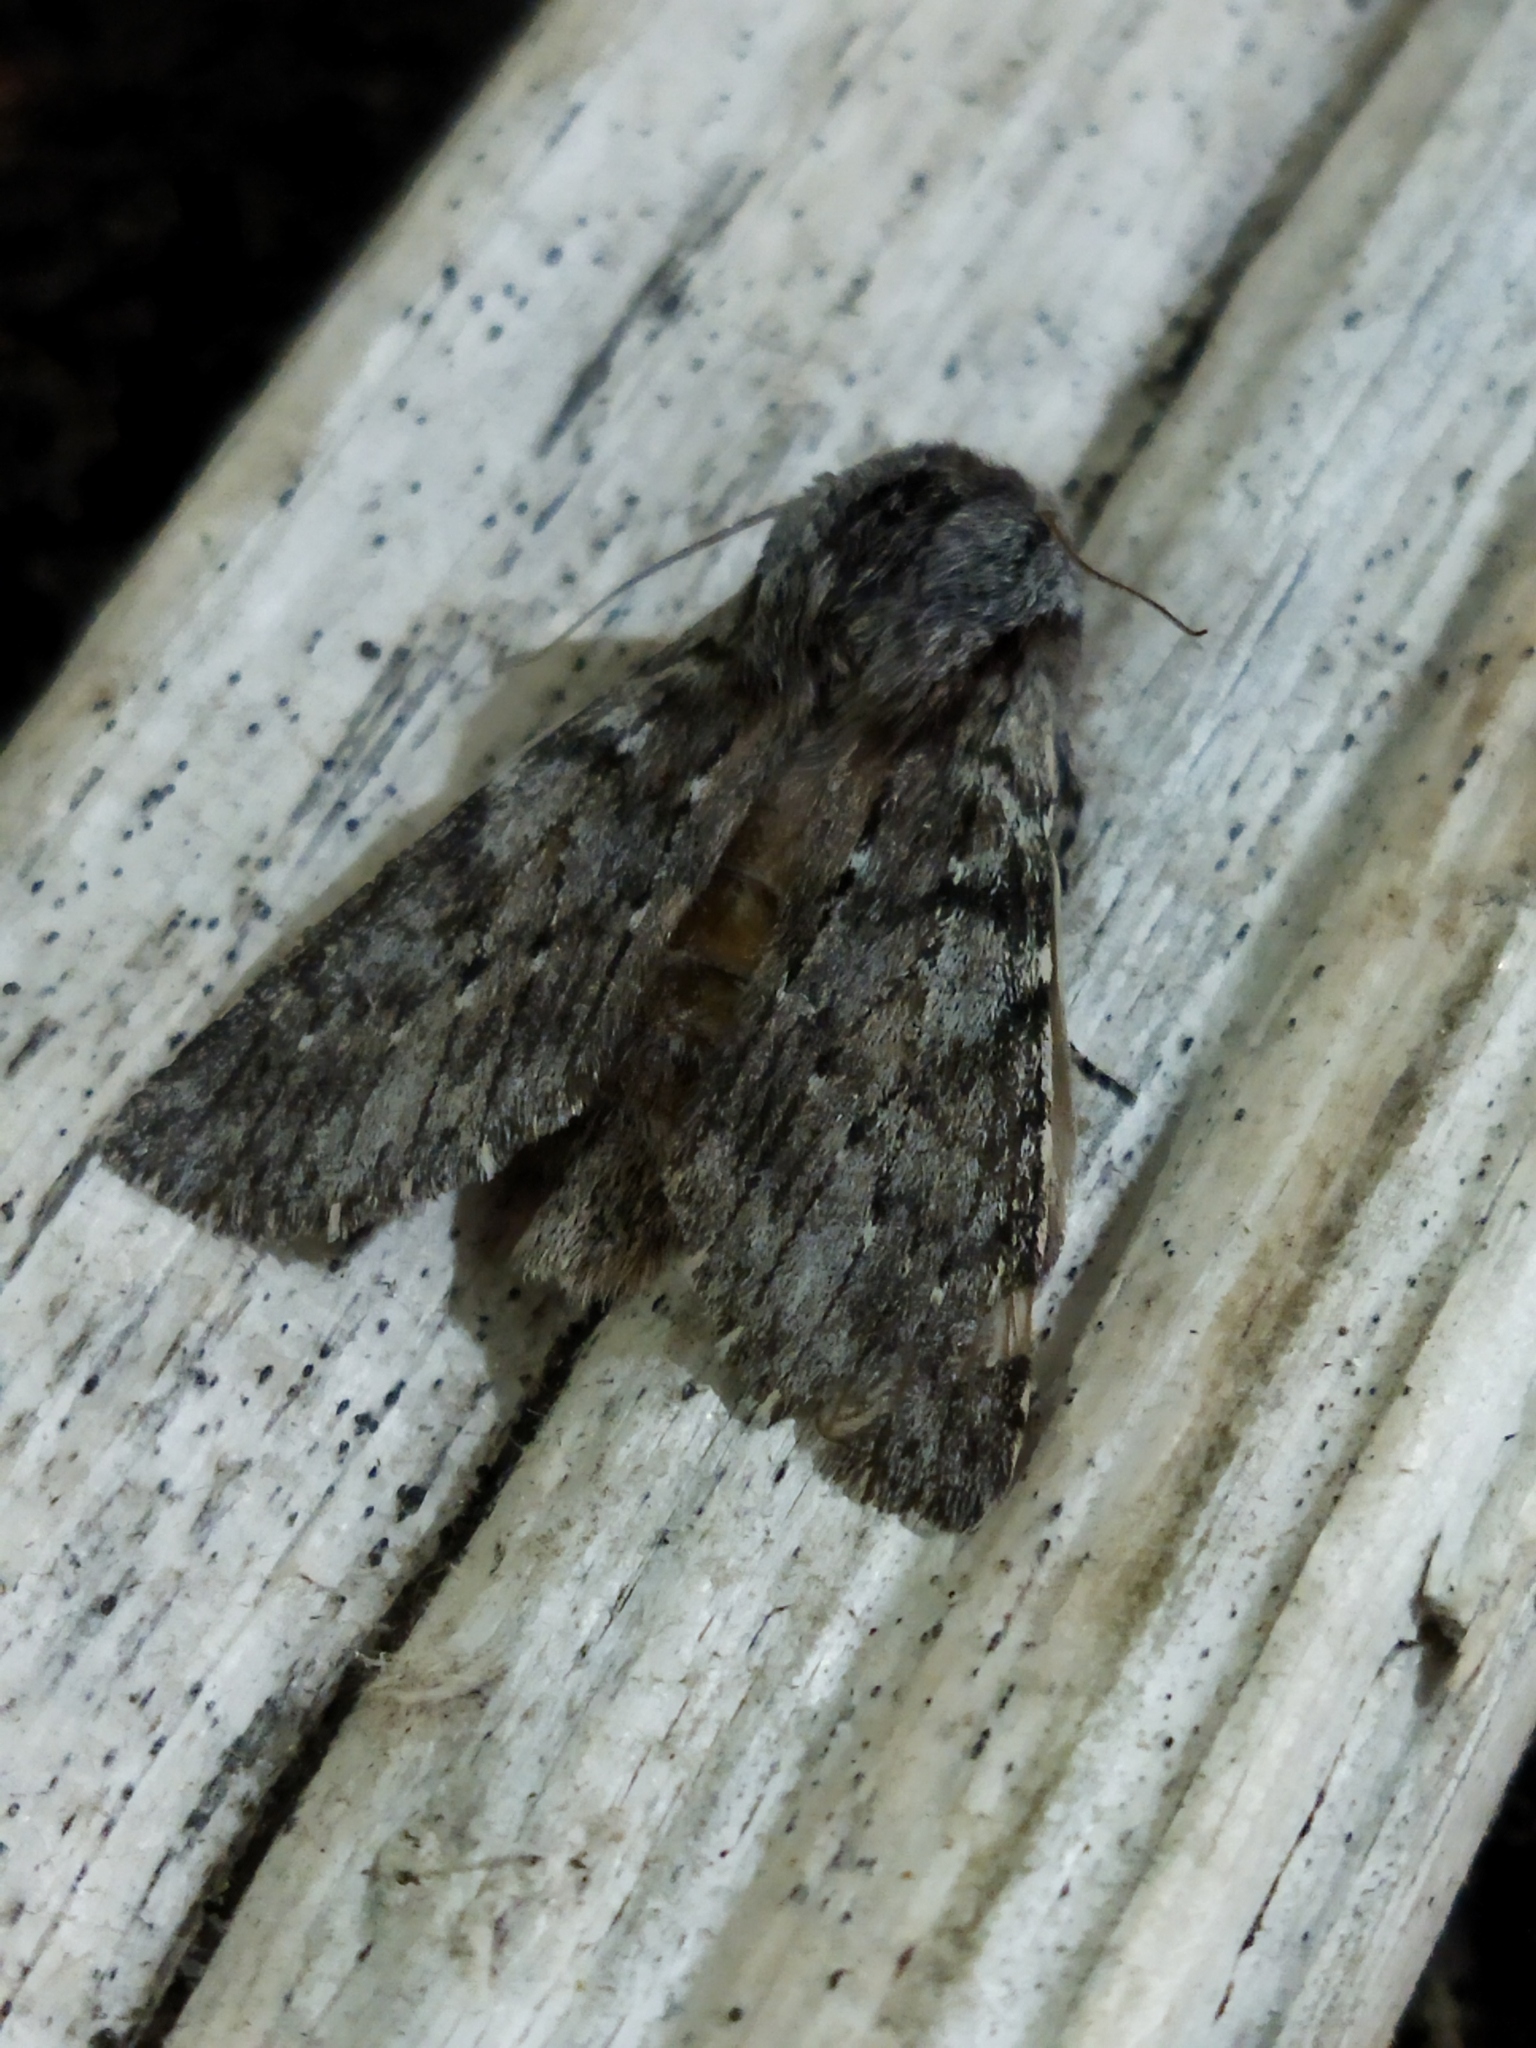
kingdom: Animalia
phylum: Arthropoda
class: Insecta
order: Lepidoptera
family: Notodontidae
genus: Dicranura
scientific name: Dicranura ulmi
